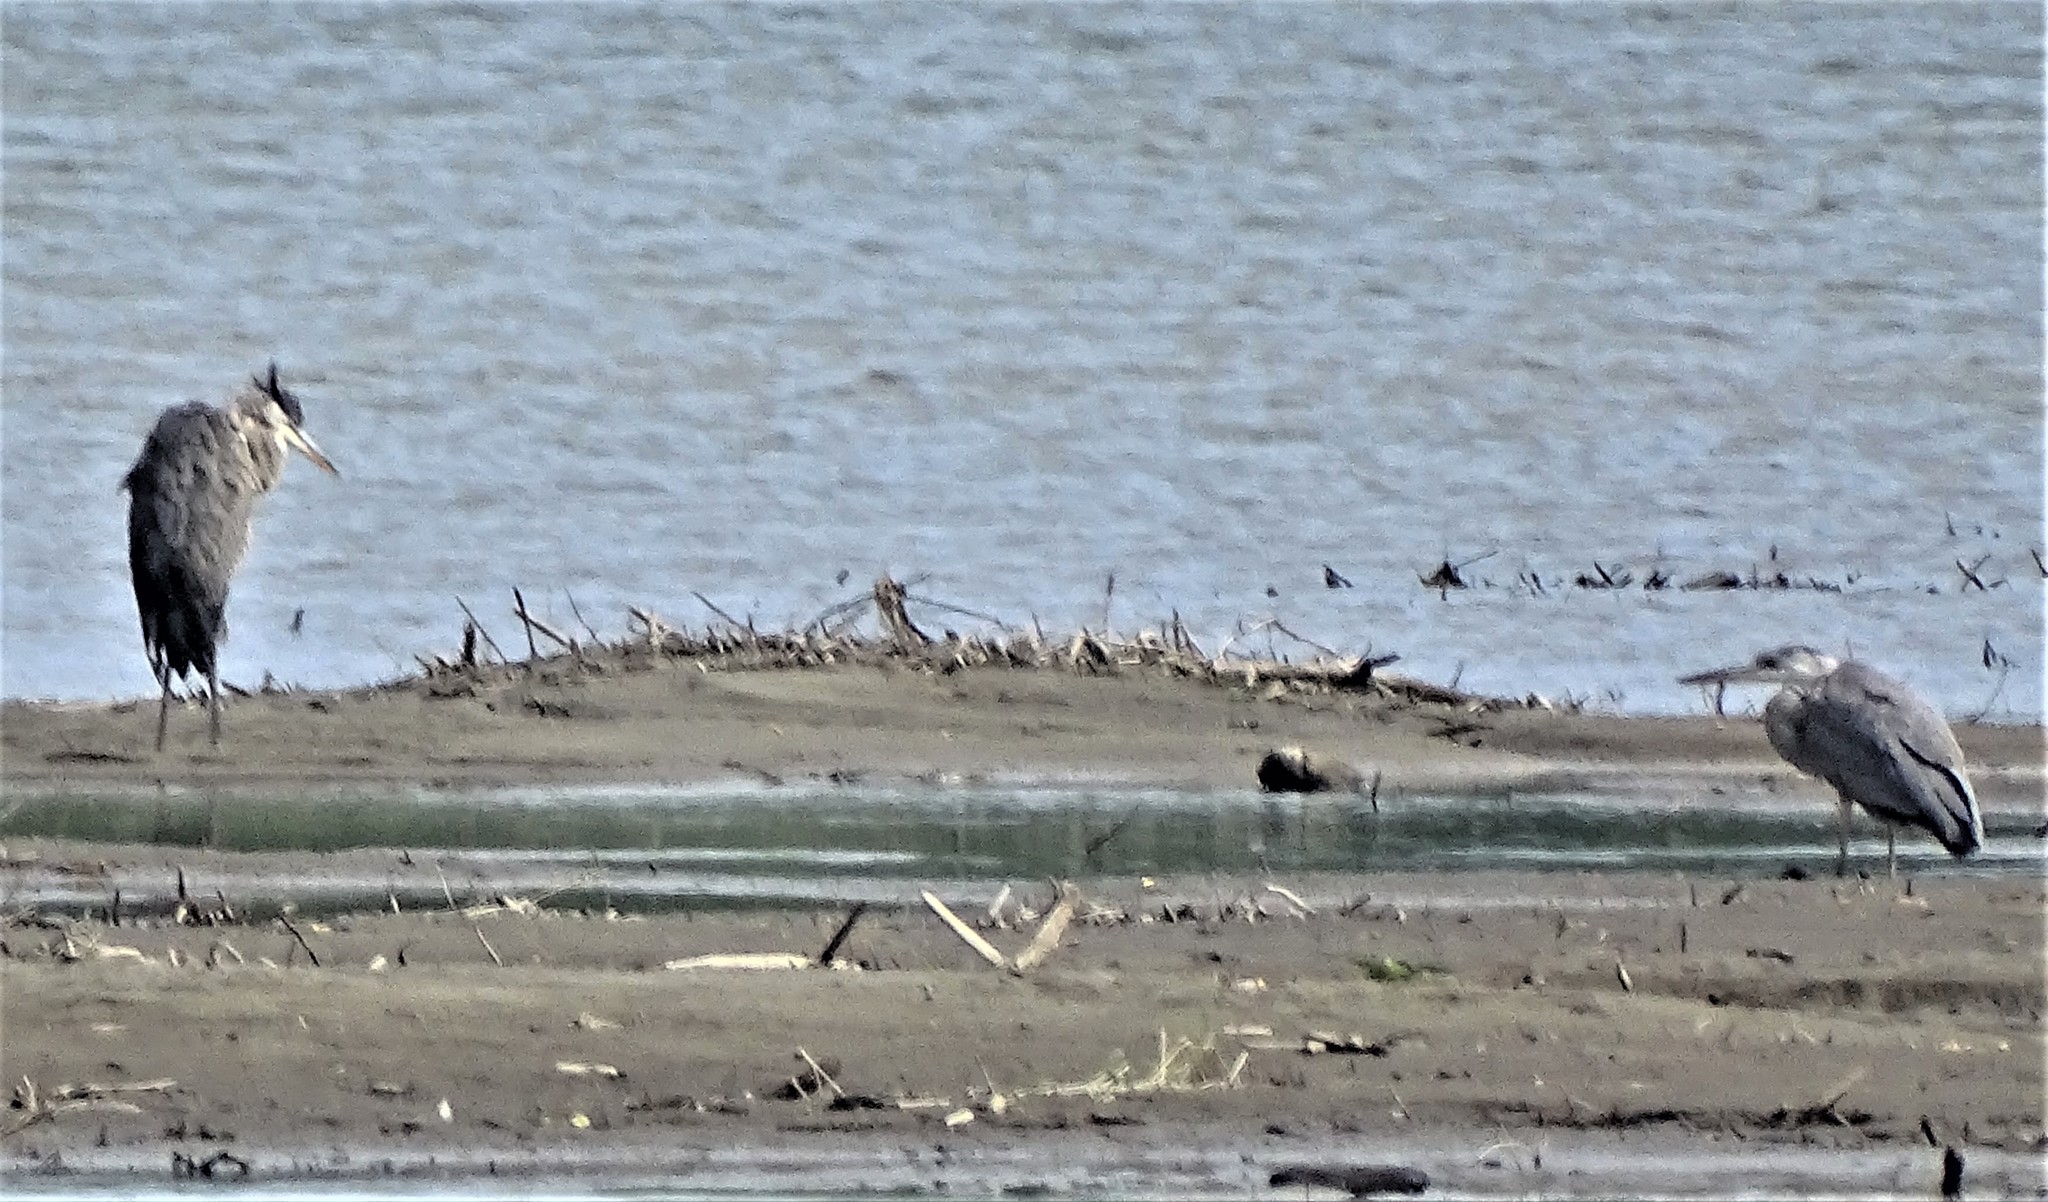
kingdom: Animalia
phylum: Chordata
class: Aves
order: Pelecaniformes
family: Ardeidae
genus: Ardea
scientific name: Ardea herodias
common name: Great blue heron
